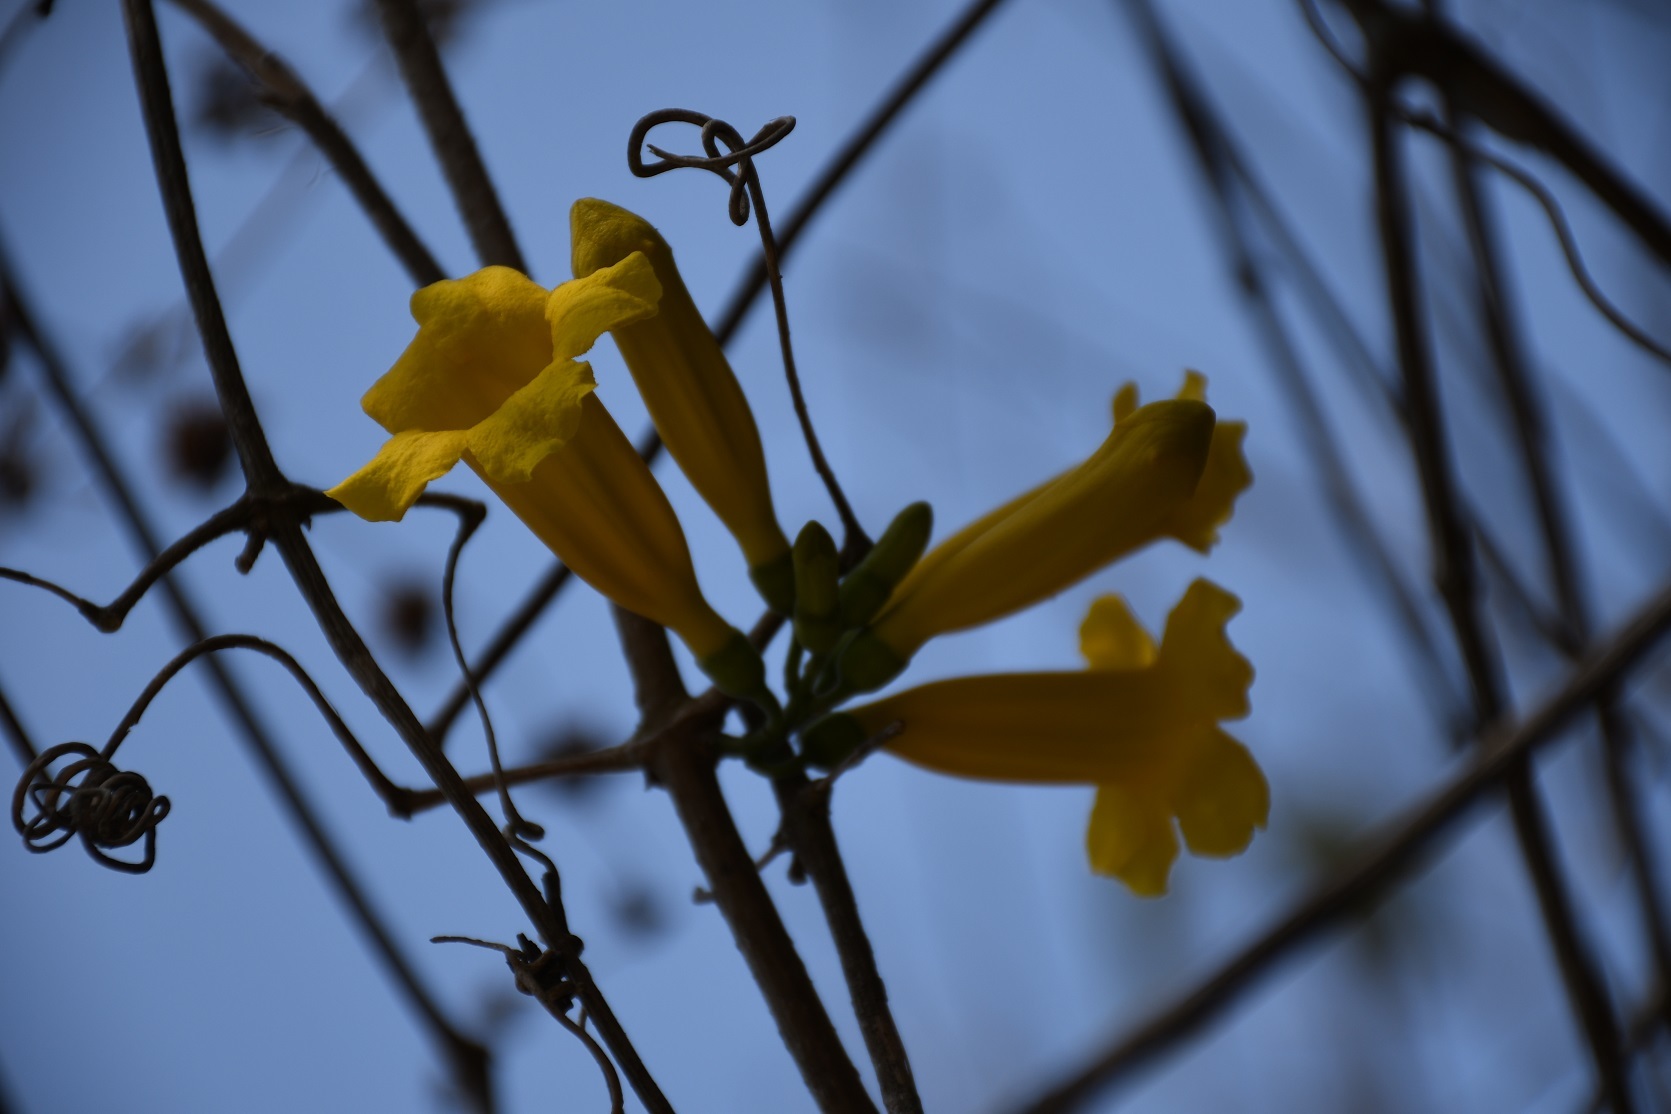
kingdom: Plantae
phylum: Tracheophyta
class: Magnoliopsida
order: Lamiales
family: Bignoniaceae
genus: Anemopaegma
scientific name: Anemopaegma chrysanthum
